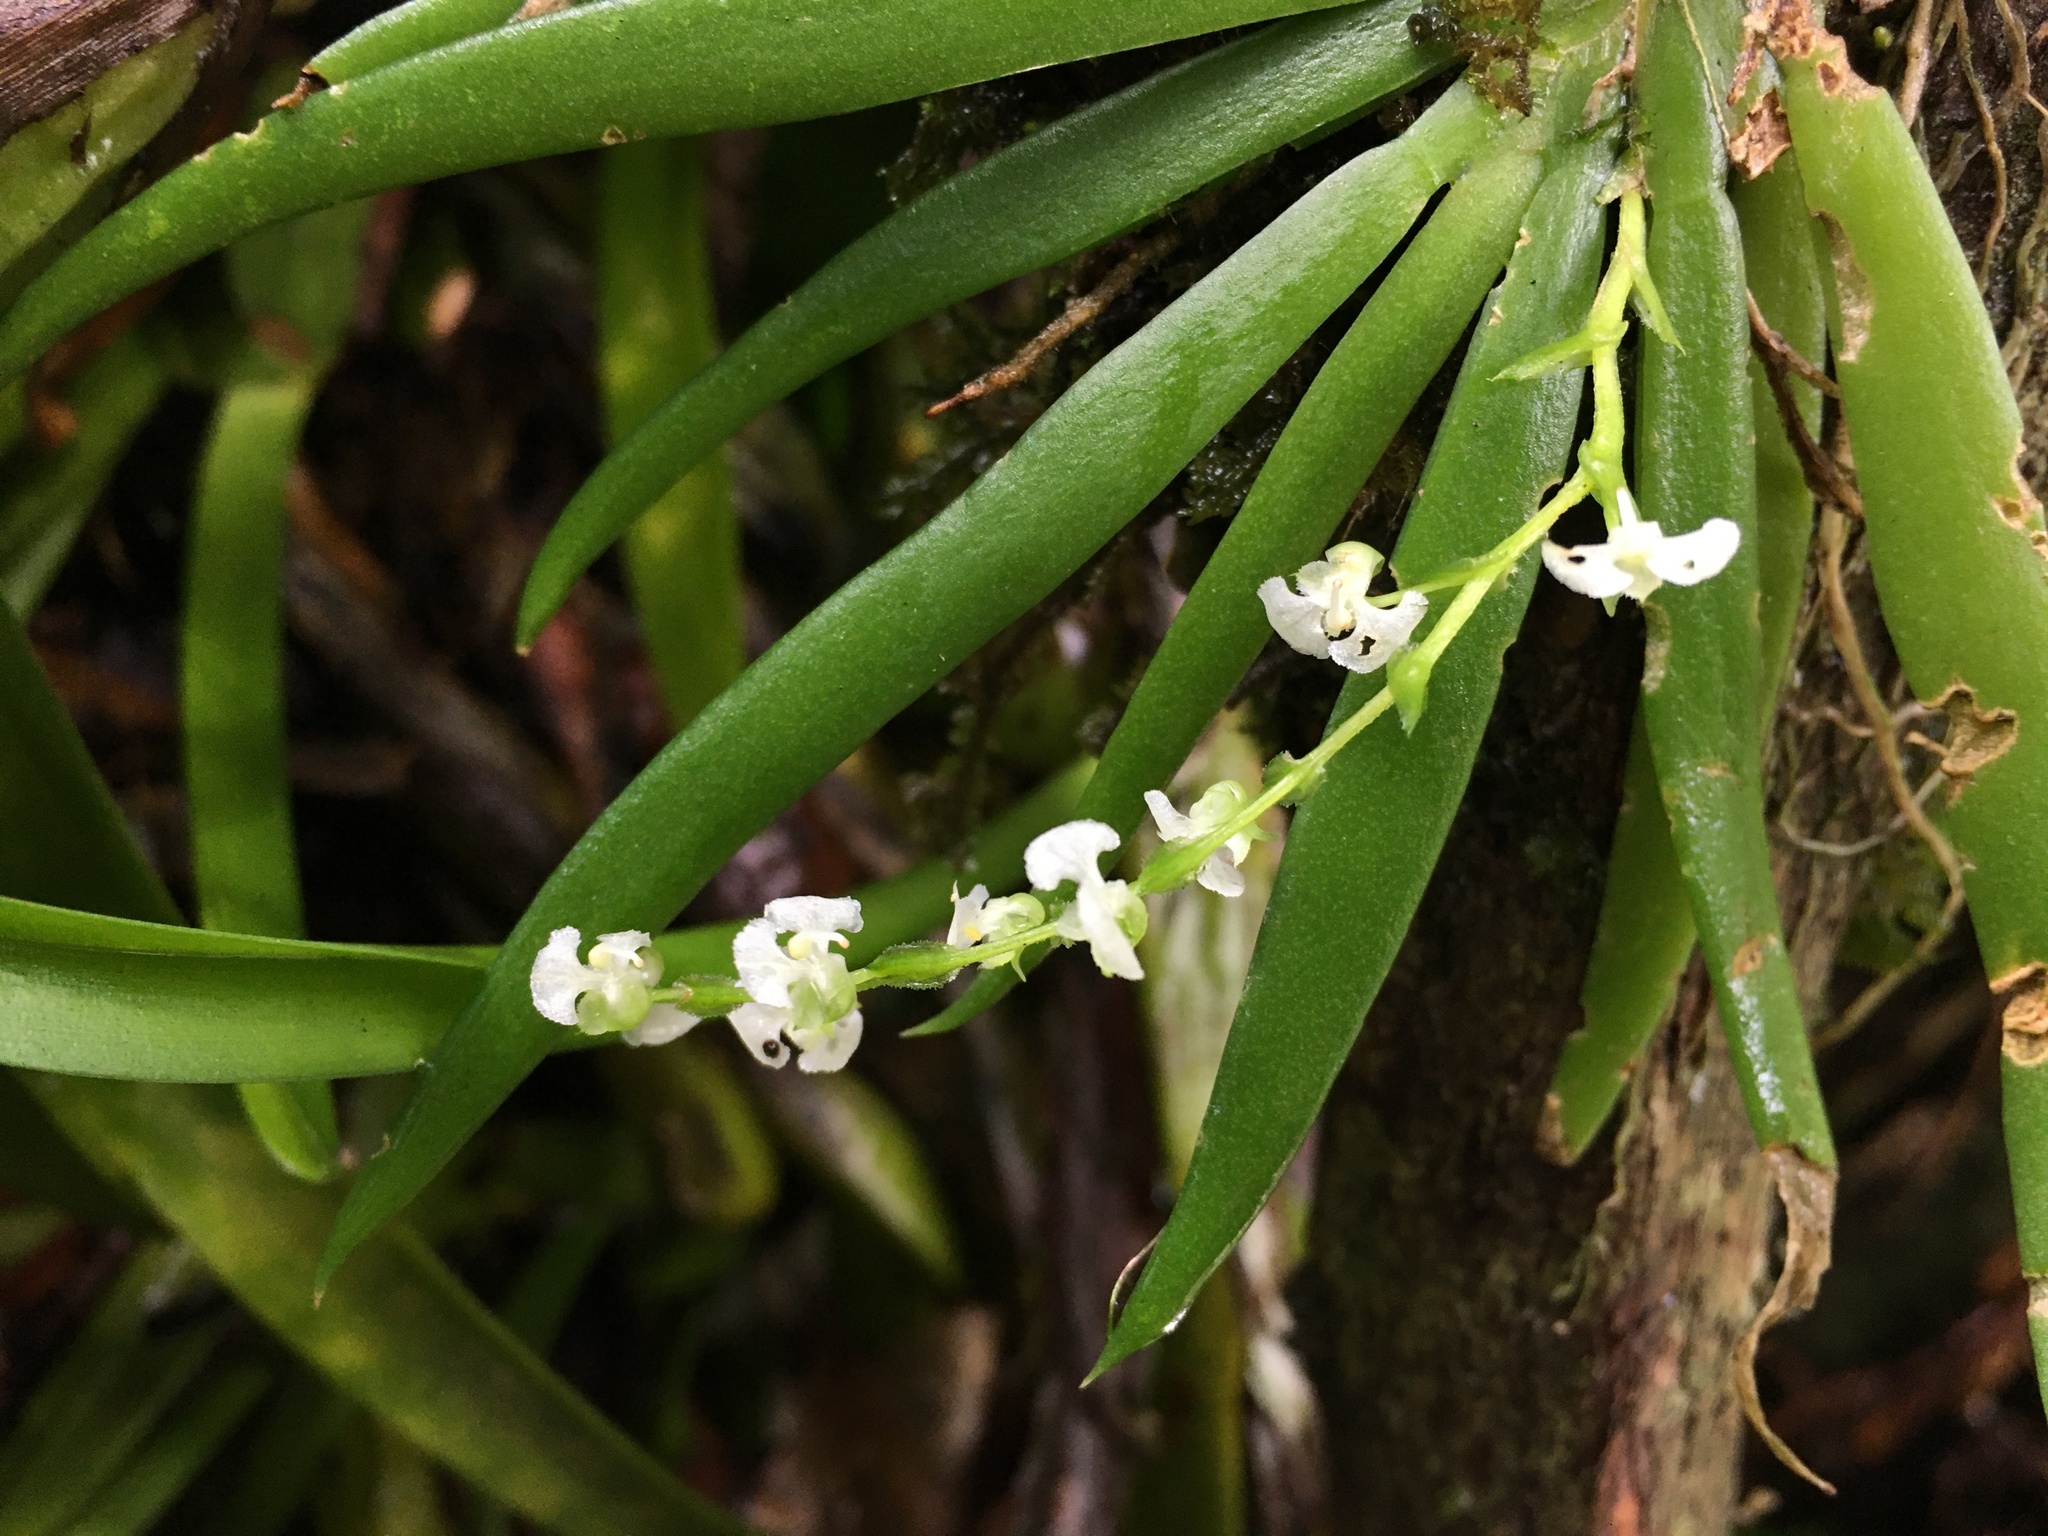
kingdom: Plantae
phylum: Tracheophyta
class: Liliopsida
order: Asparagales
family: Orchidaceae
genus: Ornithocephalus
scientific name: Ornithocephalus inflexus
